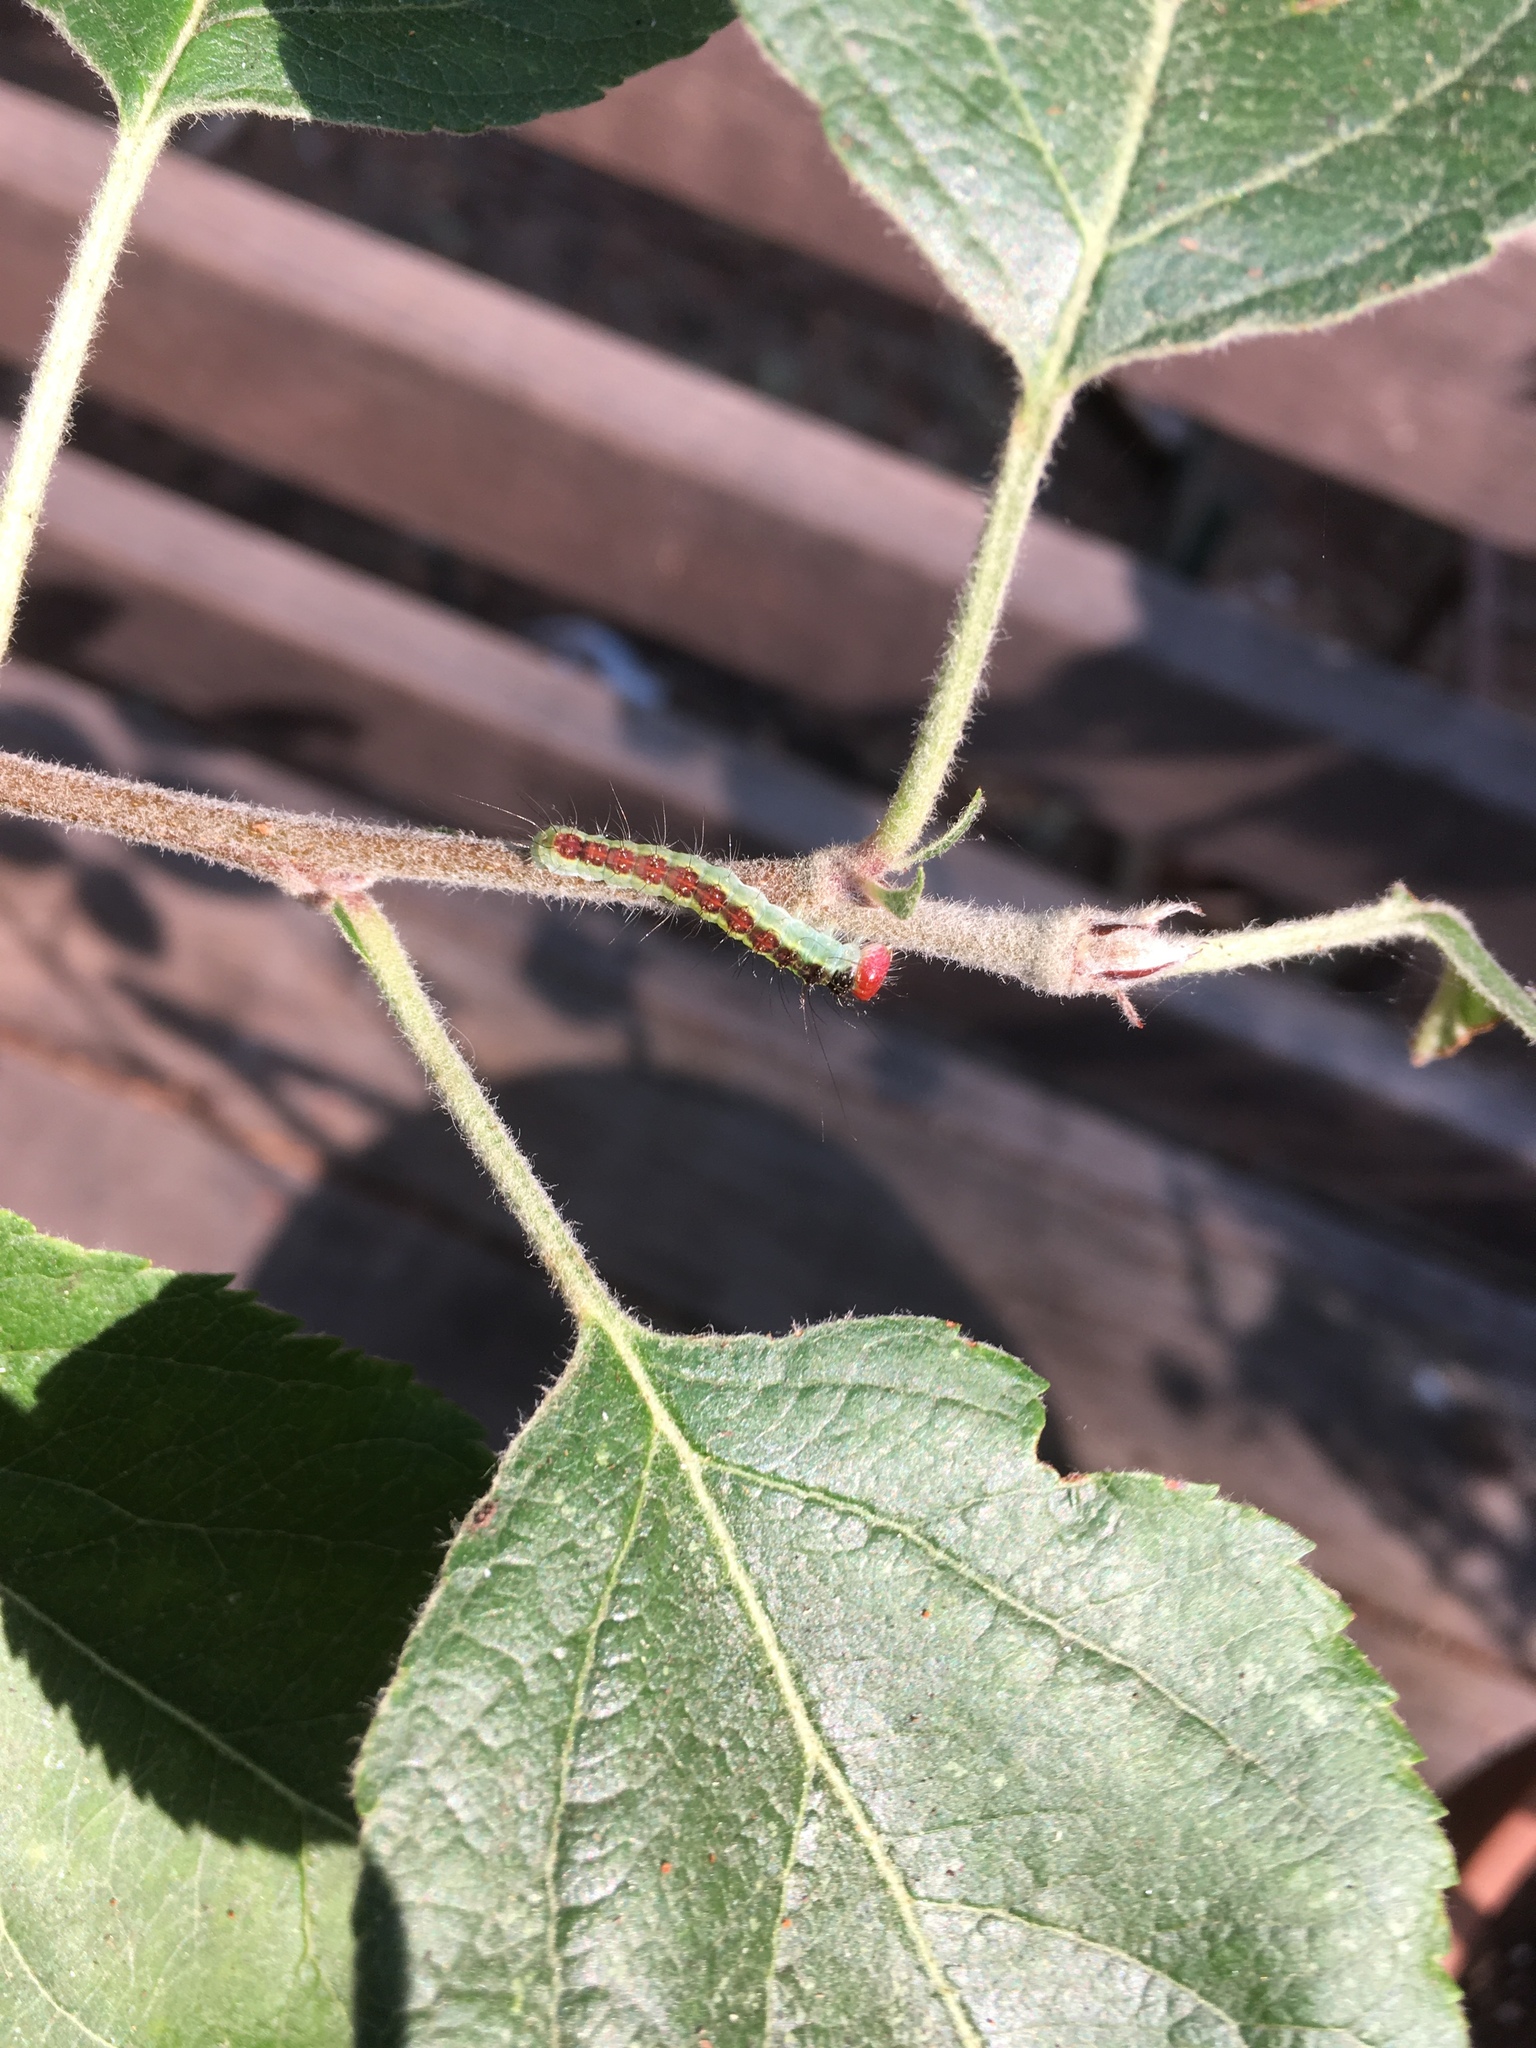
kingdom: Animalia
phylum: Arthropoda
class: Insecta
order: Lepidoptera
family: Noctuidae
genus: Acronicta
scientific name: Acronicta radcliffei
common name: Radcliffe's dagger
